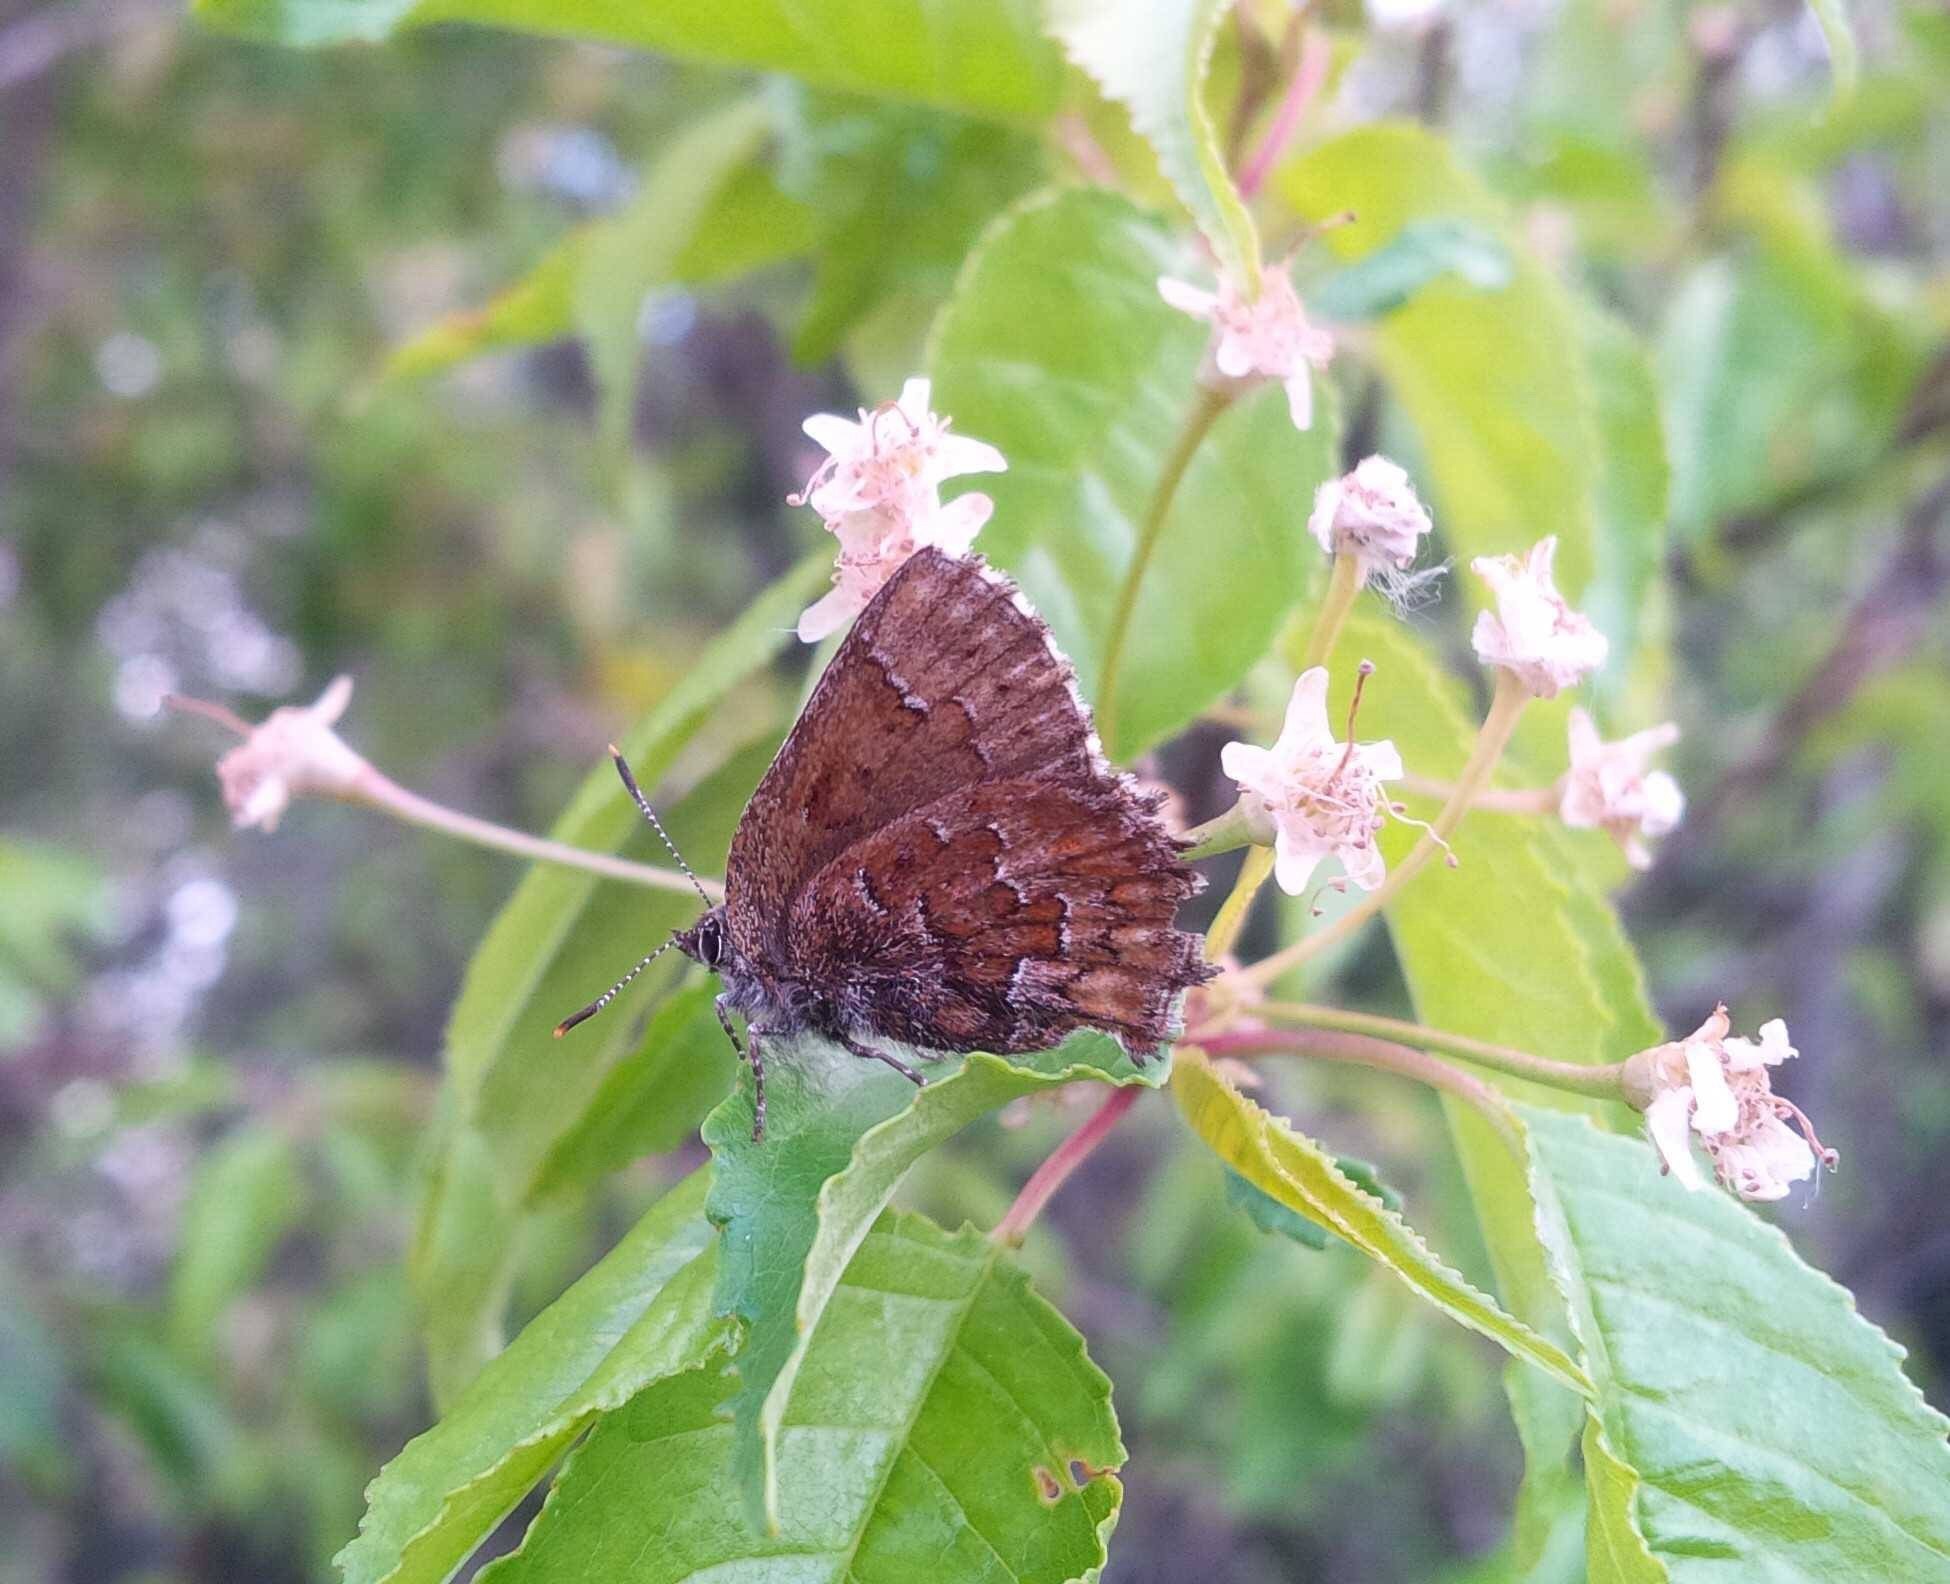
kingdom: Animalia
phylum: Arthropoda
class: Insecta
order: Lepidoptera
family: Lycaenidae
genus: Incisalia
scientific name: Incisalia niphon
